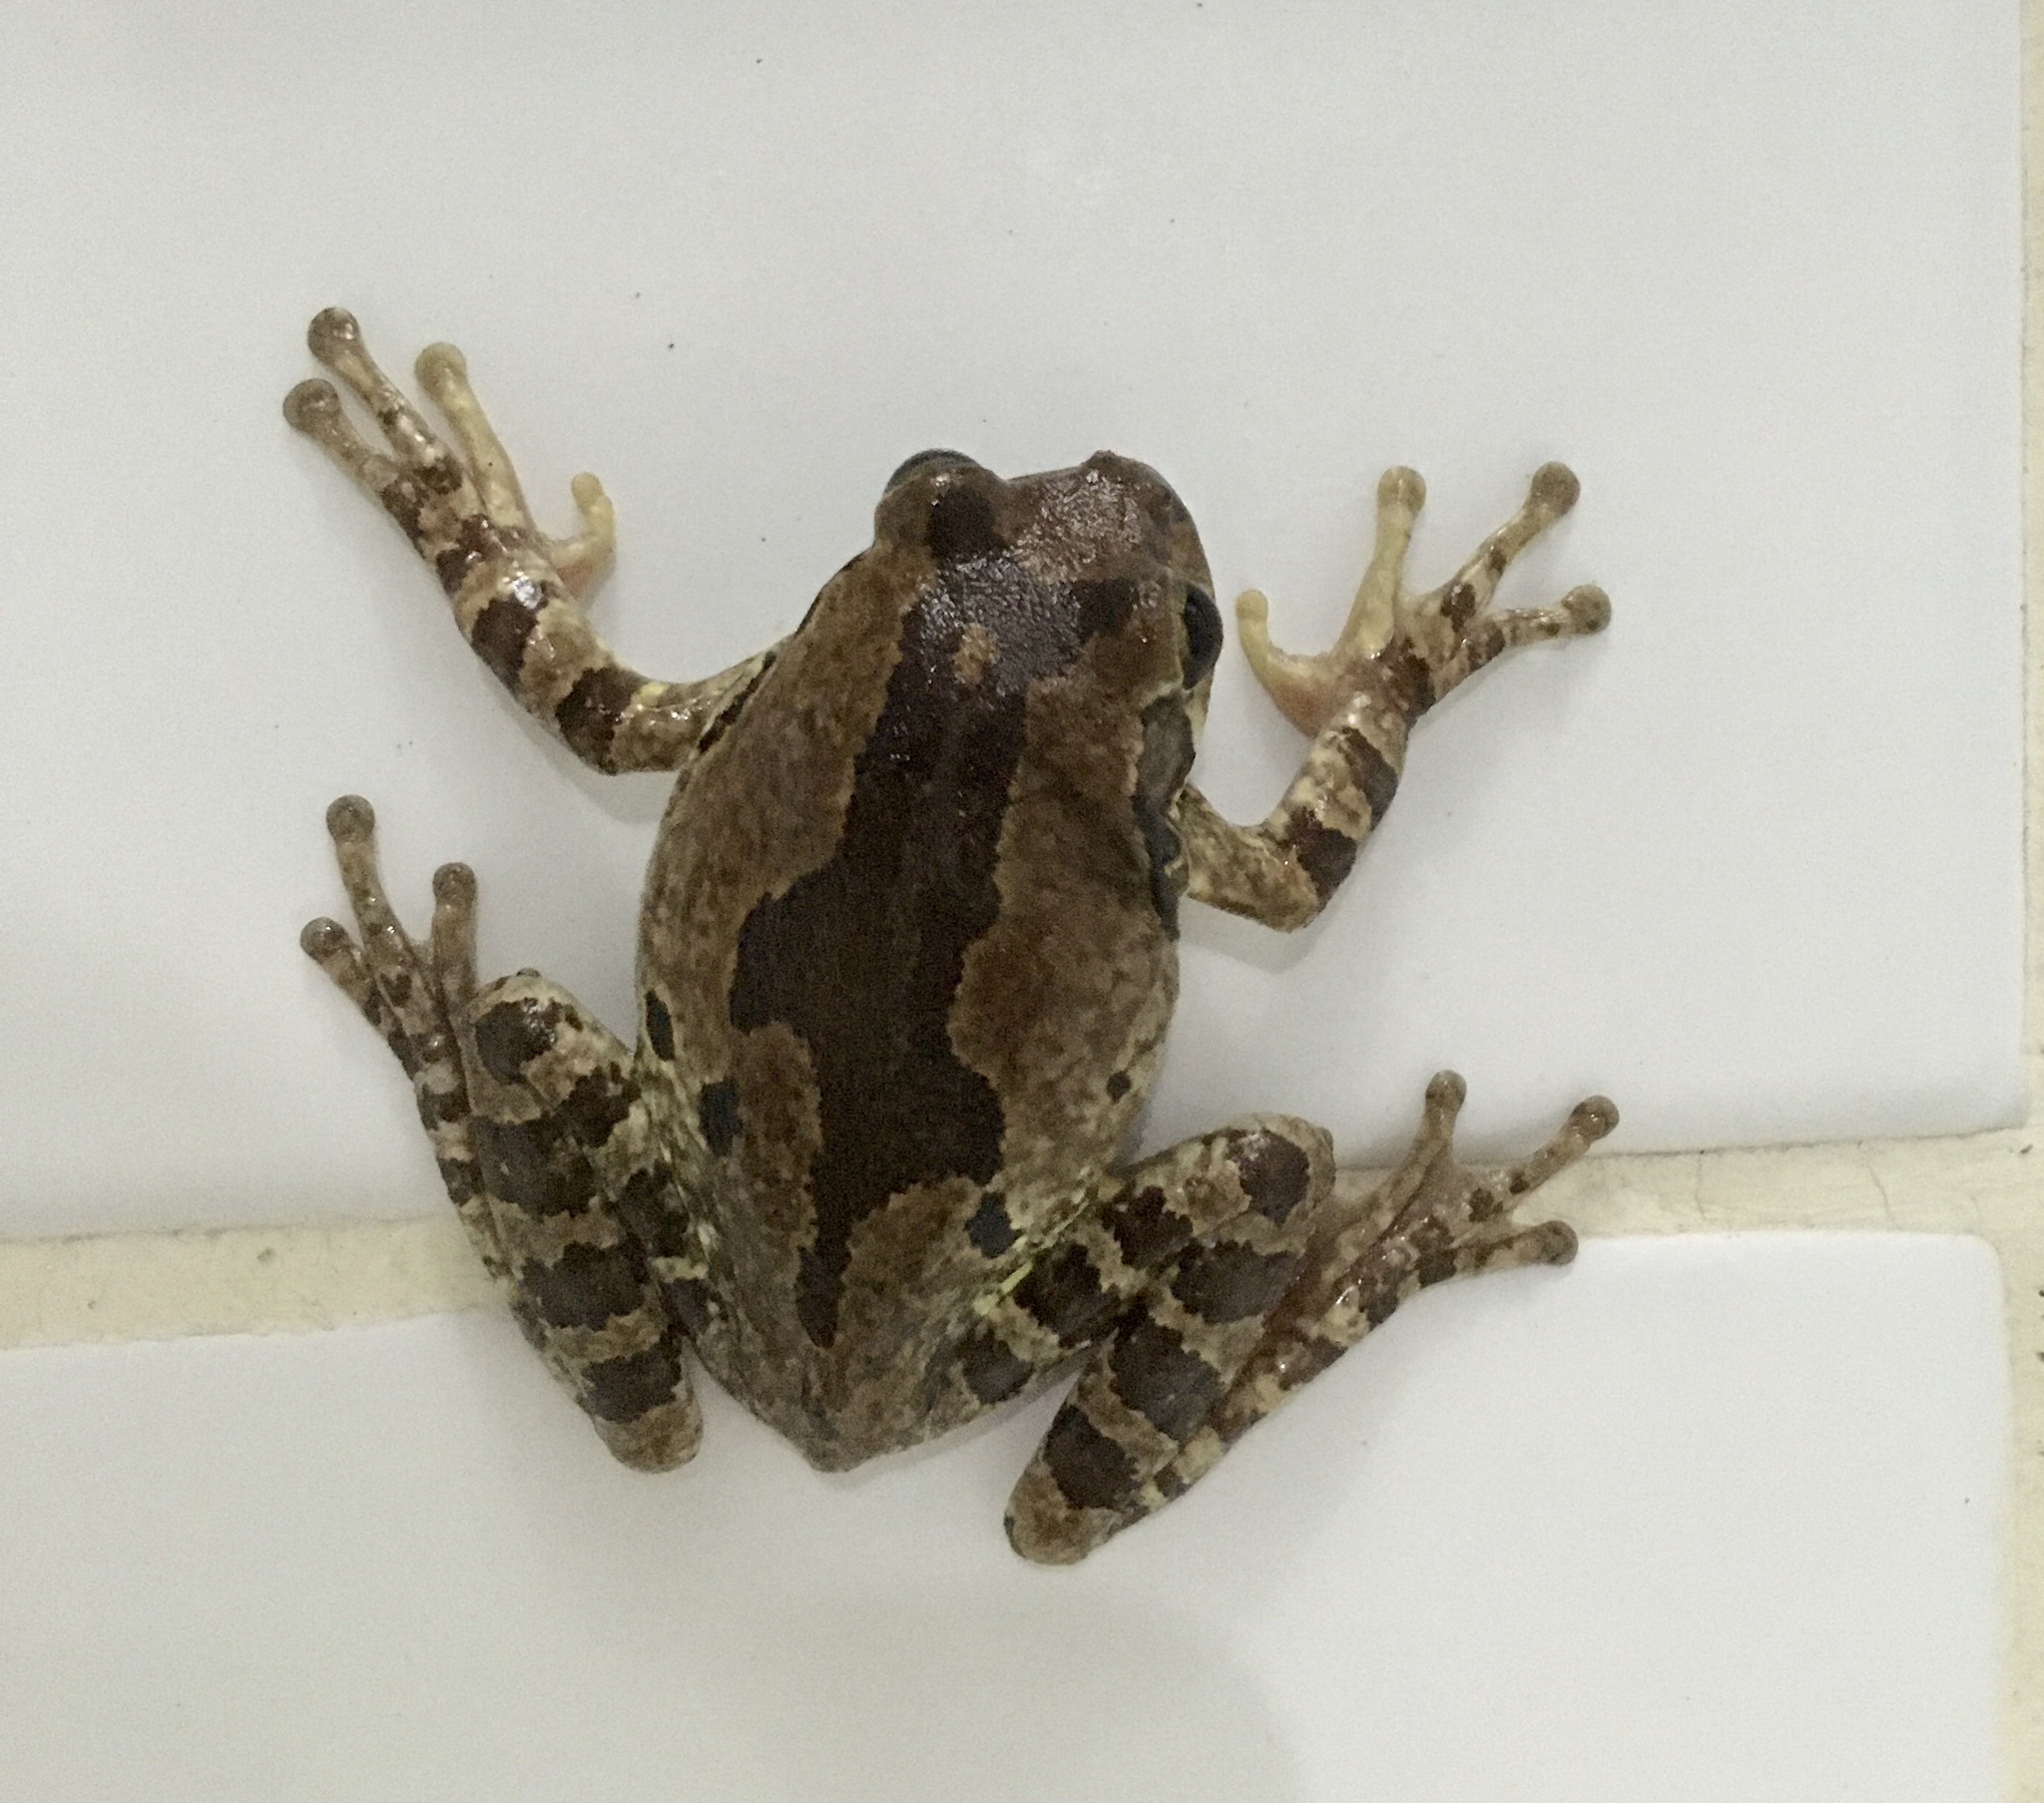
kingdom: Animalia
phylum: Chordata
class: Amphibia
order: Anura
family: Hylidae
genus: Smilisca
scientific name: Smilisca baudinii
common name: Mexican smilisca
